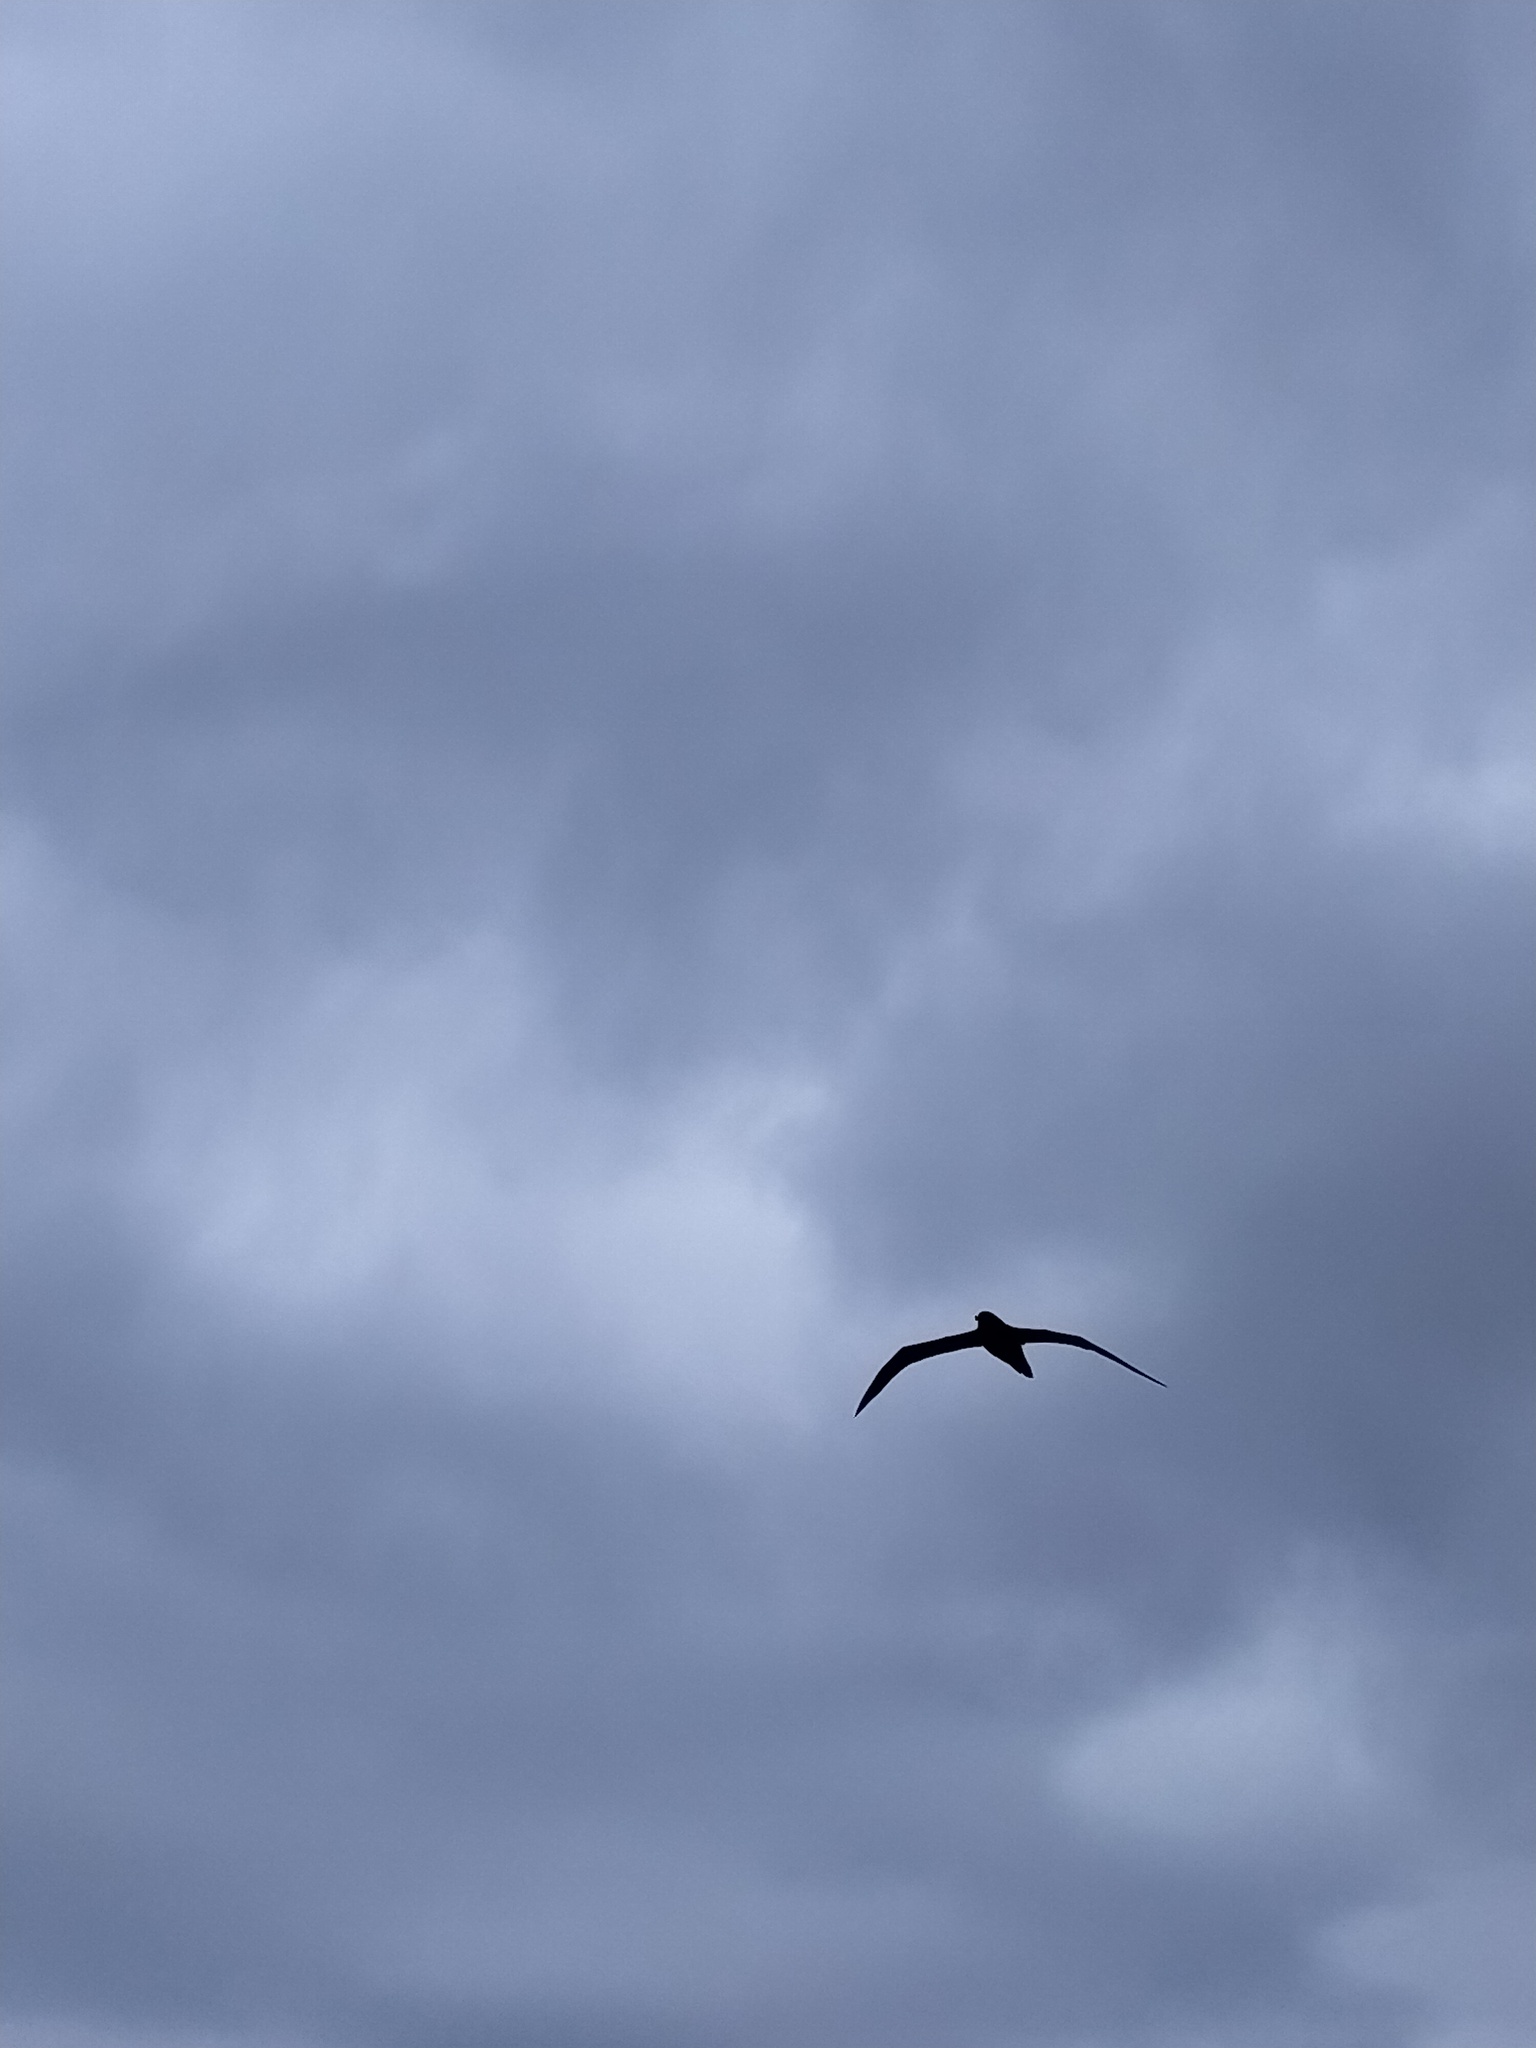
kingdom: Animalia
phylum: Chordata
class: Aves
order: Procellariiformes
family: Diomedeidae
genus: Phoebetria
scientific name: Phoebetria palpebrata
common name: Light-mantled albatross
